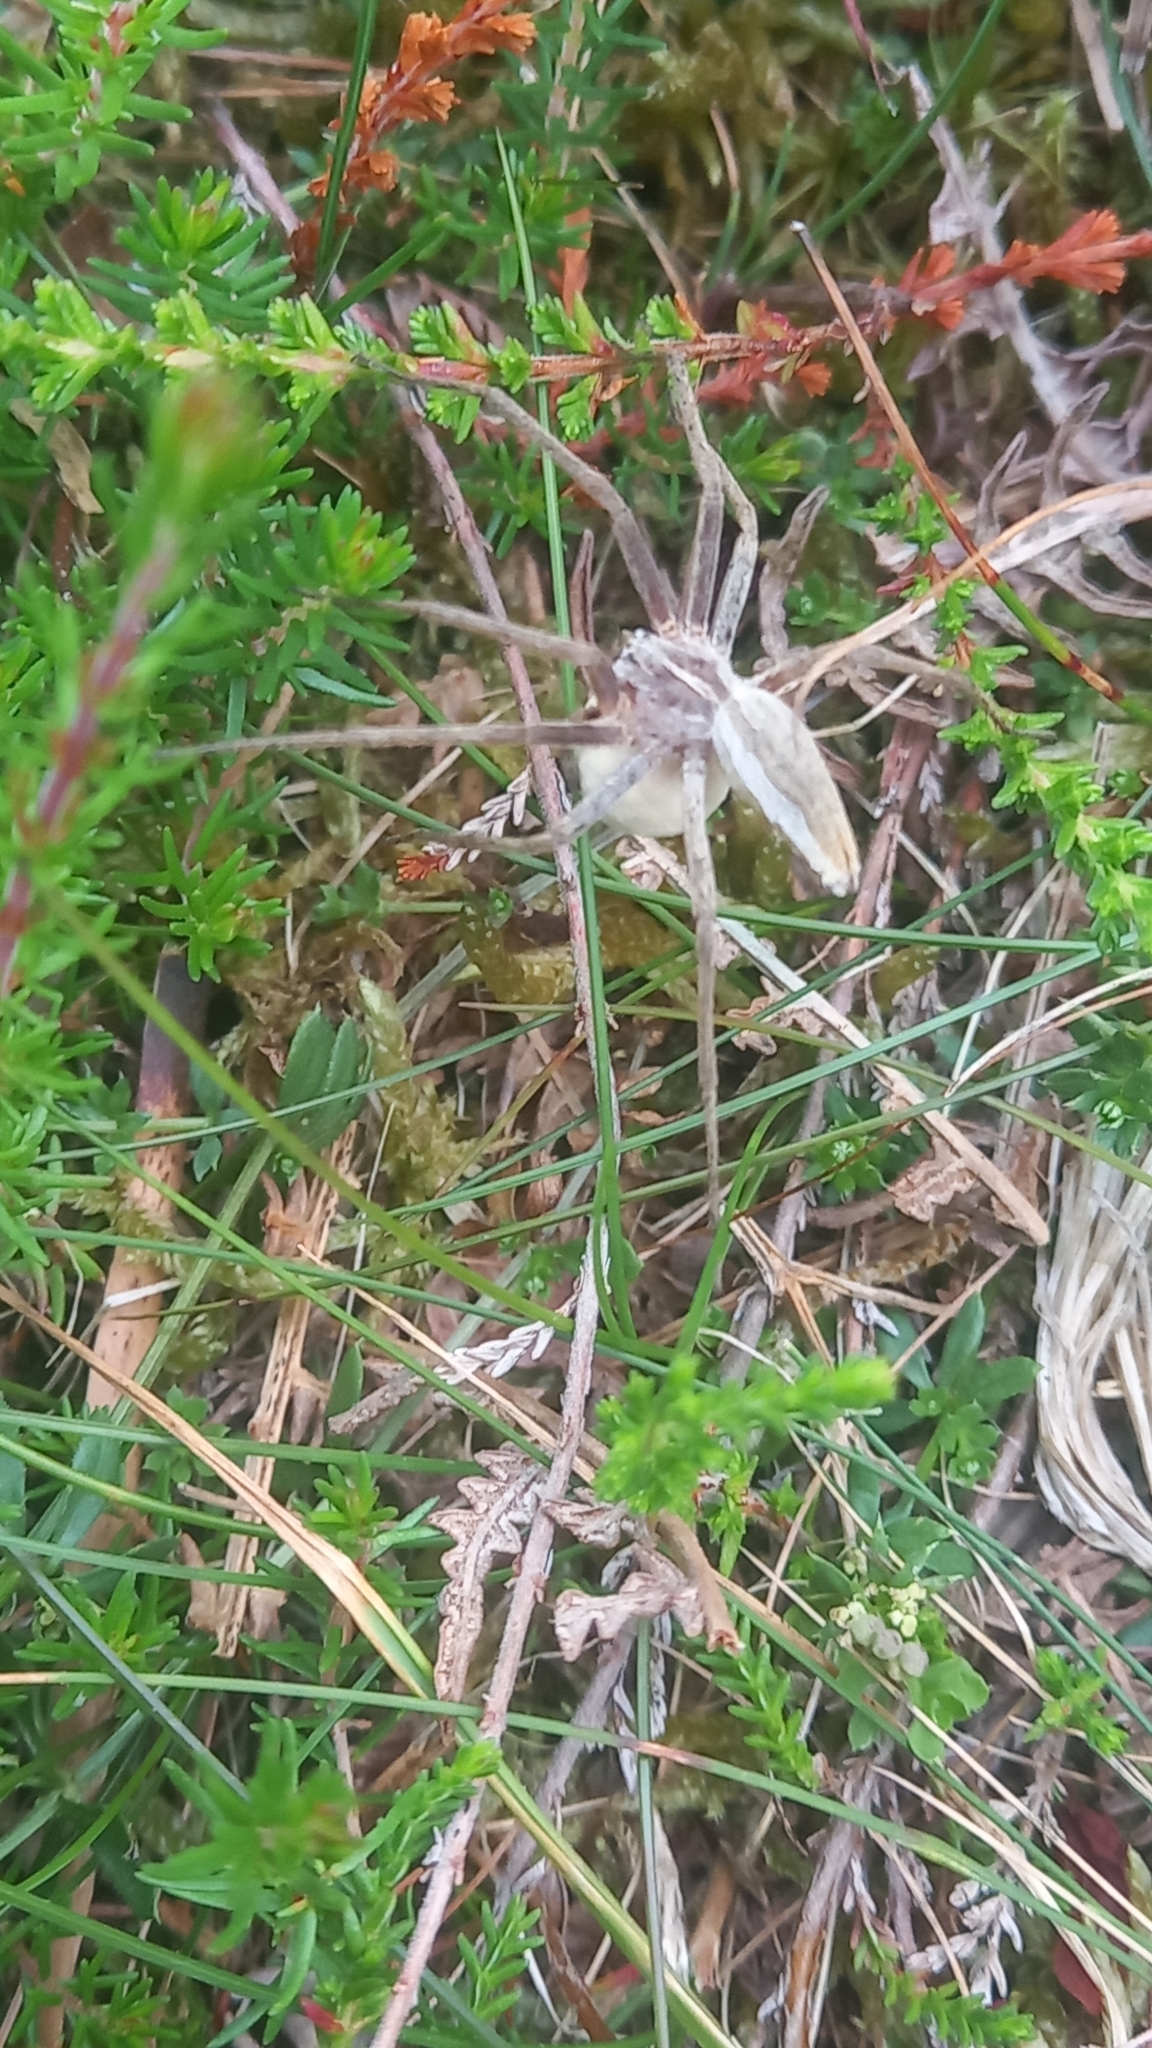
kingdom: Animalia
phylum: Arthropoda
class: Arachnida
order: Araneae
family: Pisauridae
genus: Pisaura
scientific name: Pisaura mirabilis
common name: Tent spider
